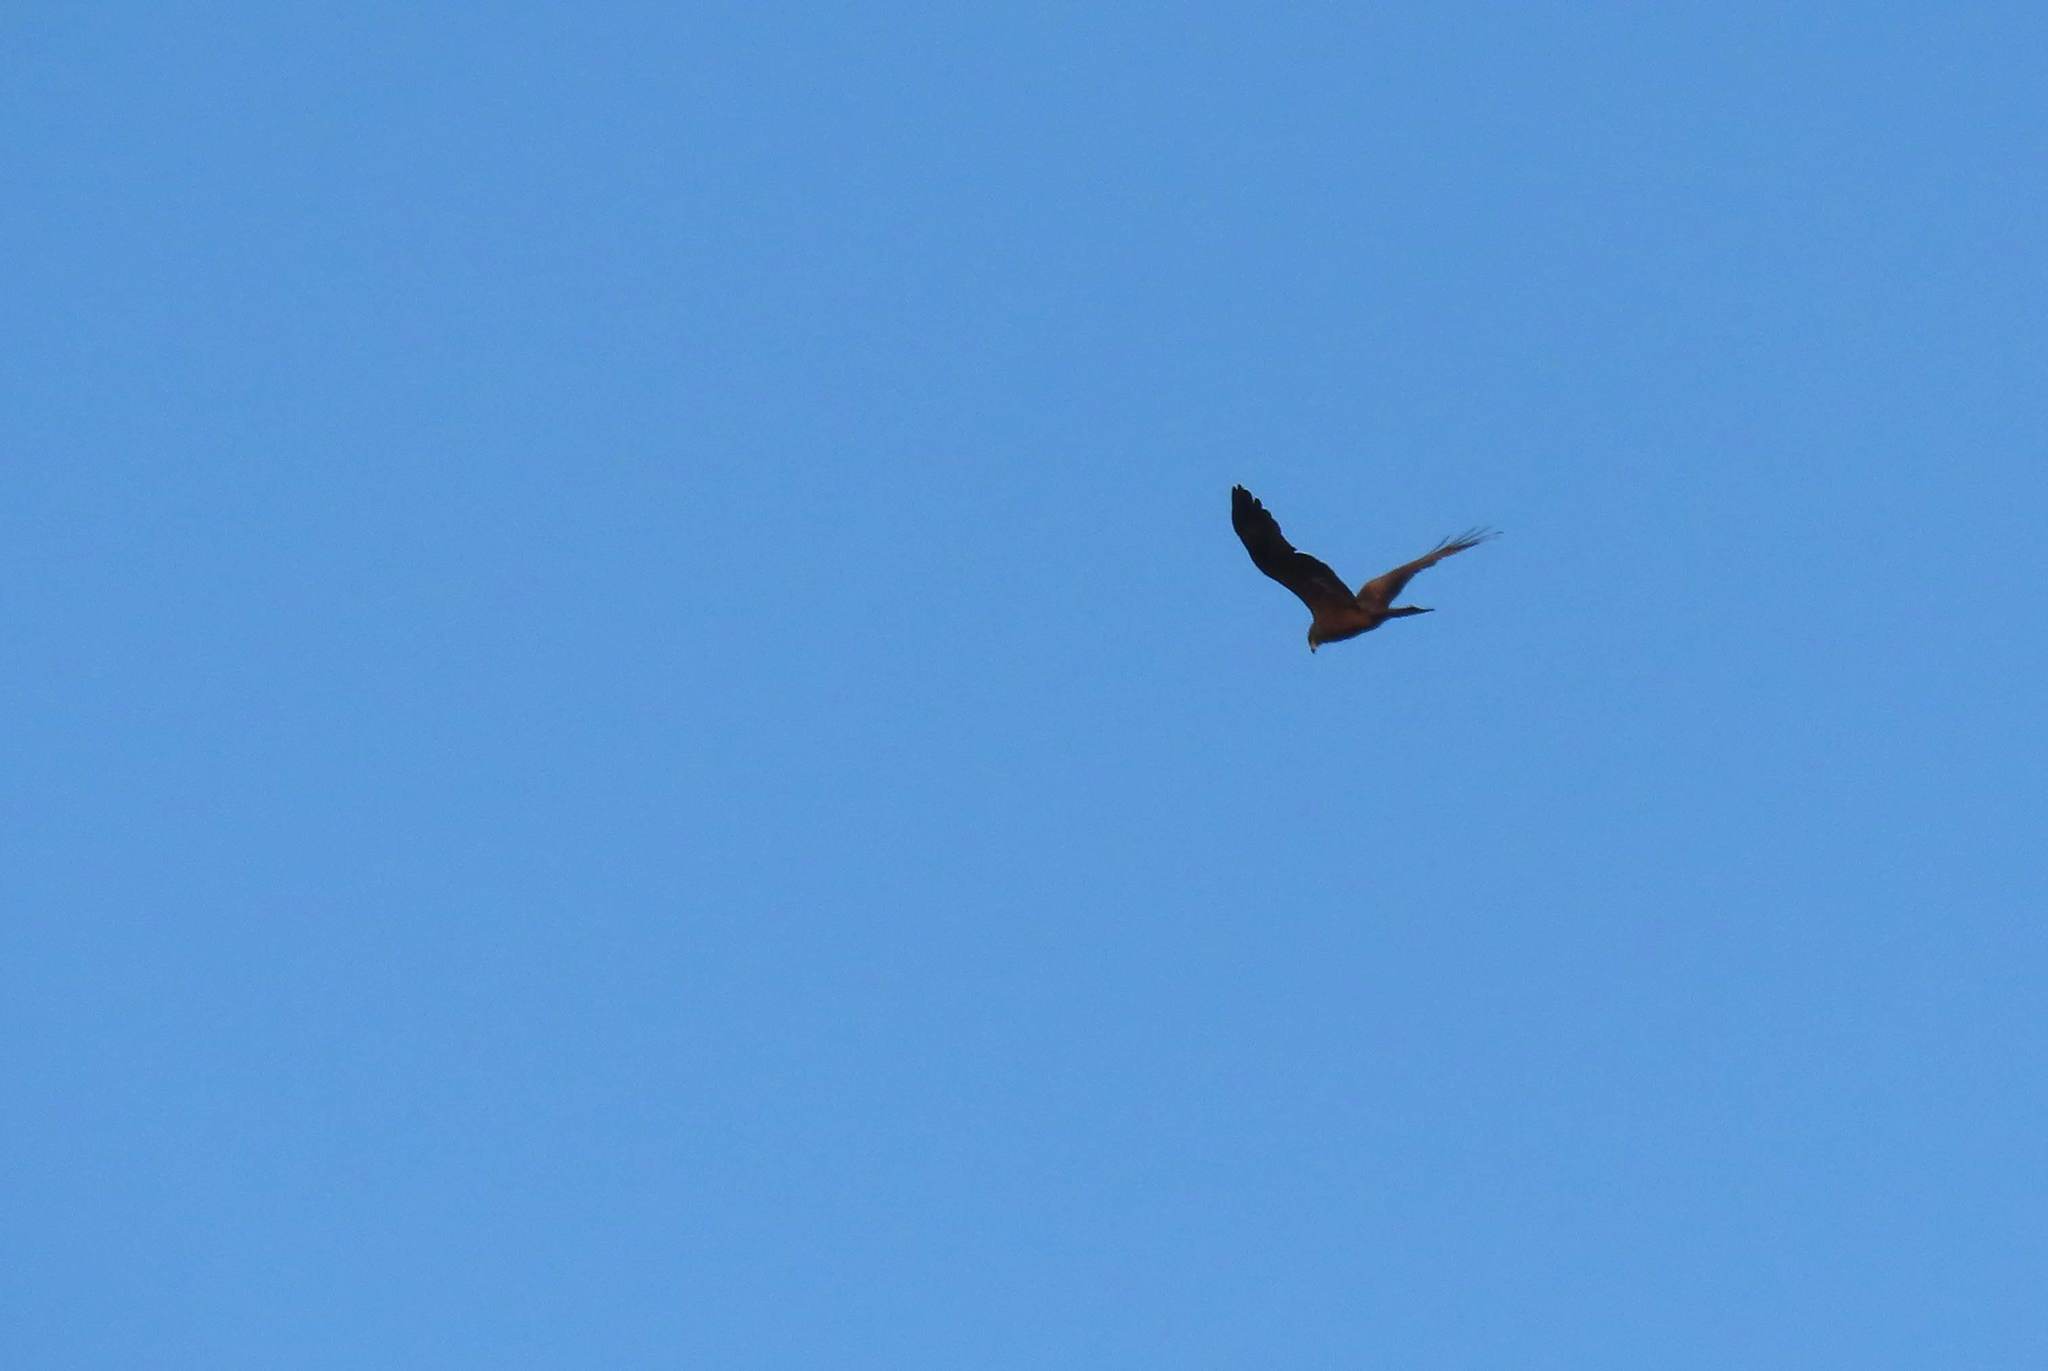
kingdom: Animalia
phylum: Chordata
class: Aves
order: Accipitriformes
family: Accipitridae
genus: Milvus
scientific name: Milvus migrans
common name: Black kite
